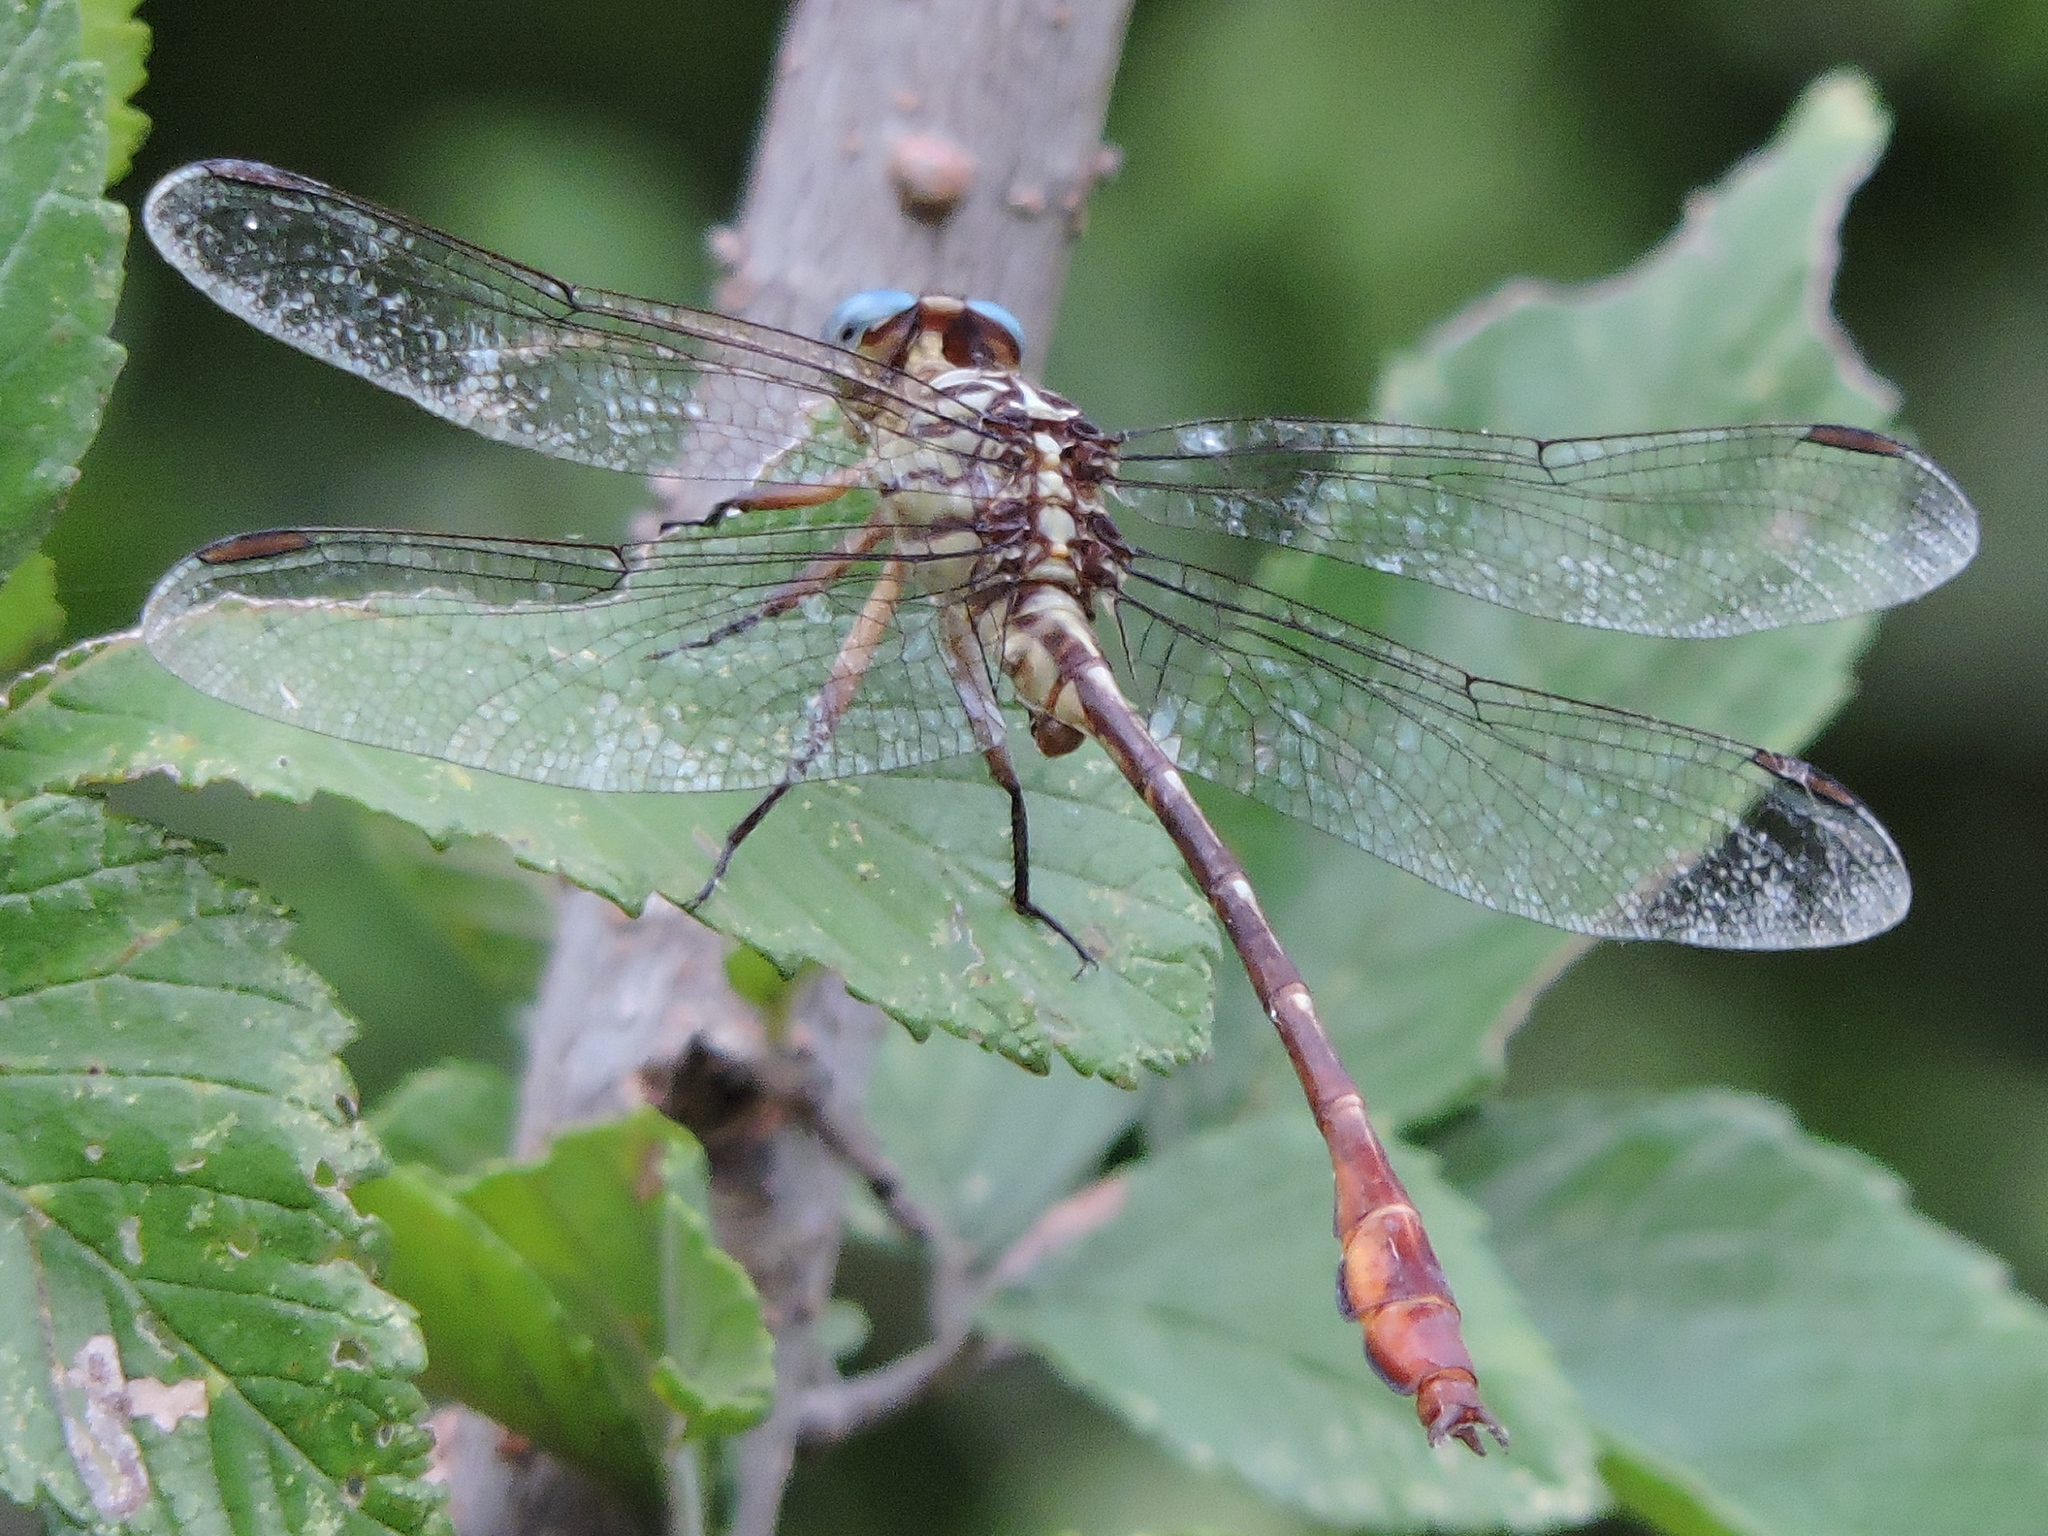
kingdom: Animalia
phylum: Arthropoda
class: Insecta
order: Odonata
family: Gomphidae
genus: Stylurus
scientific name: Stylurus plagiatus
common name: Russet-tipped clubtail
